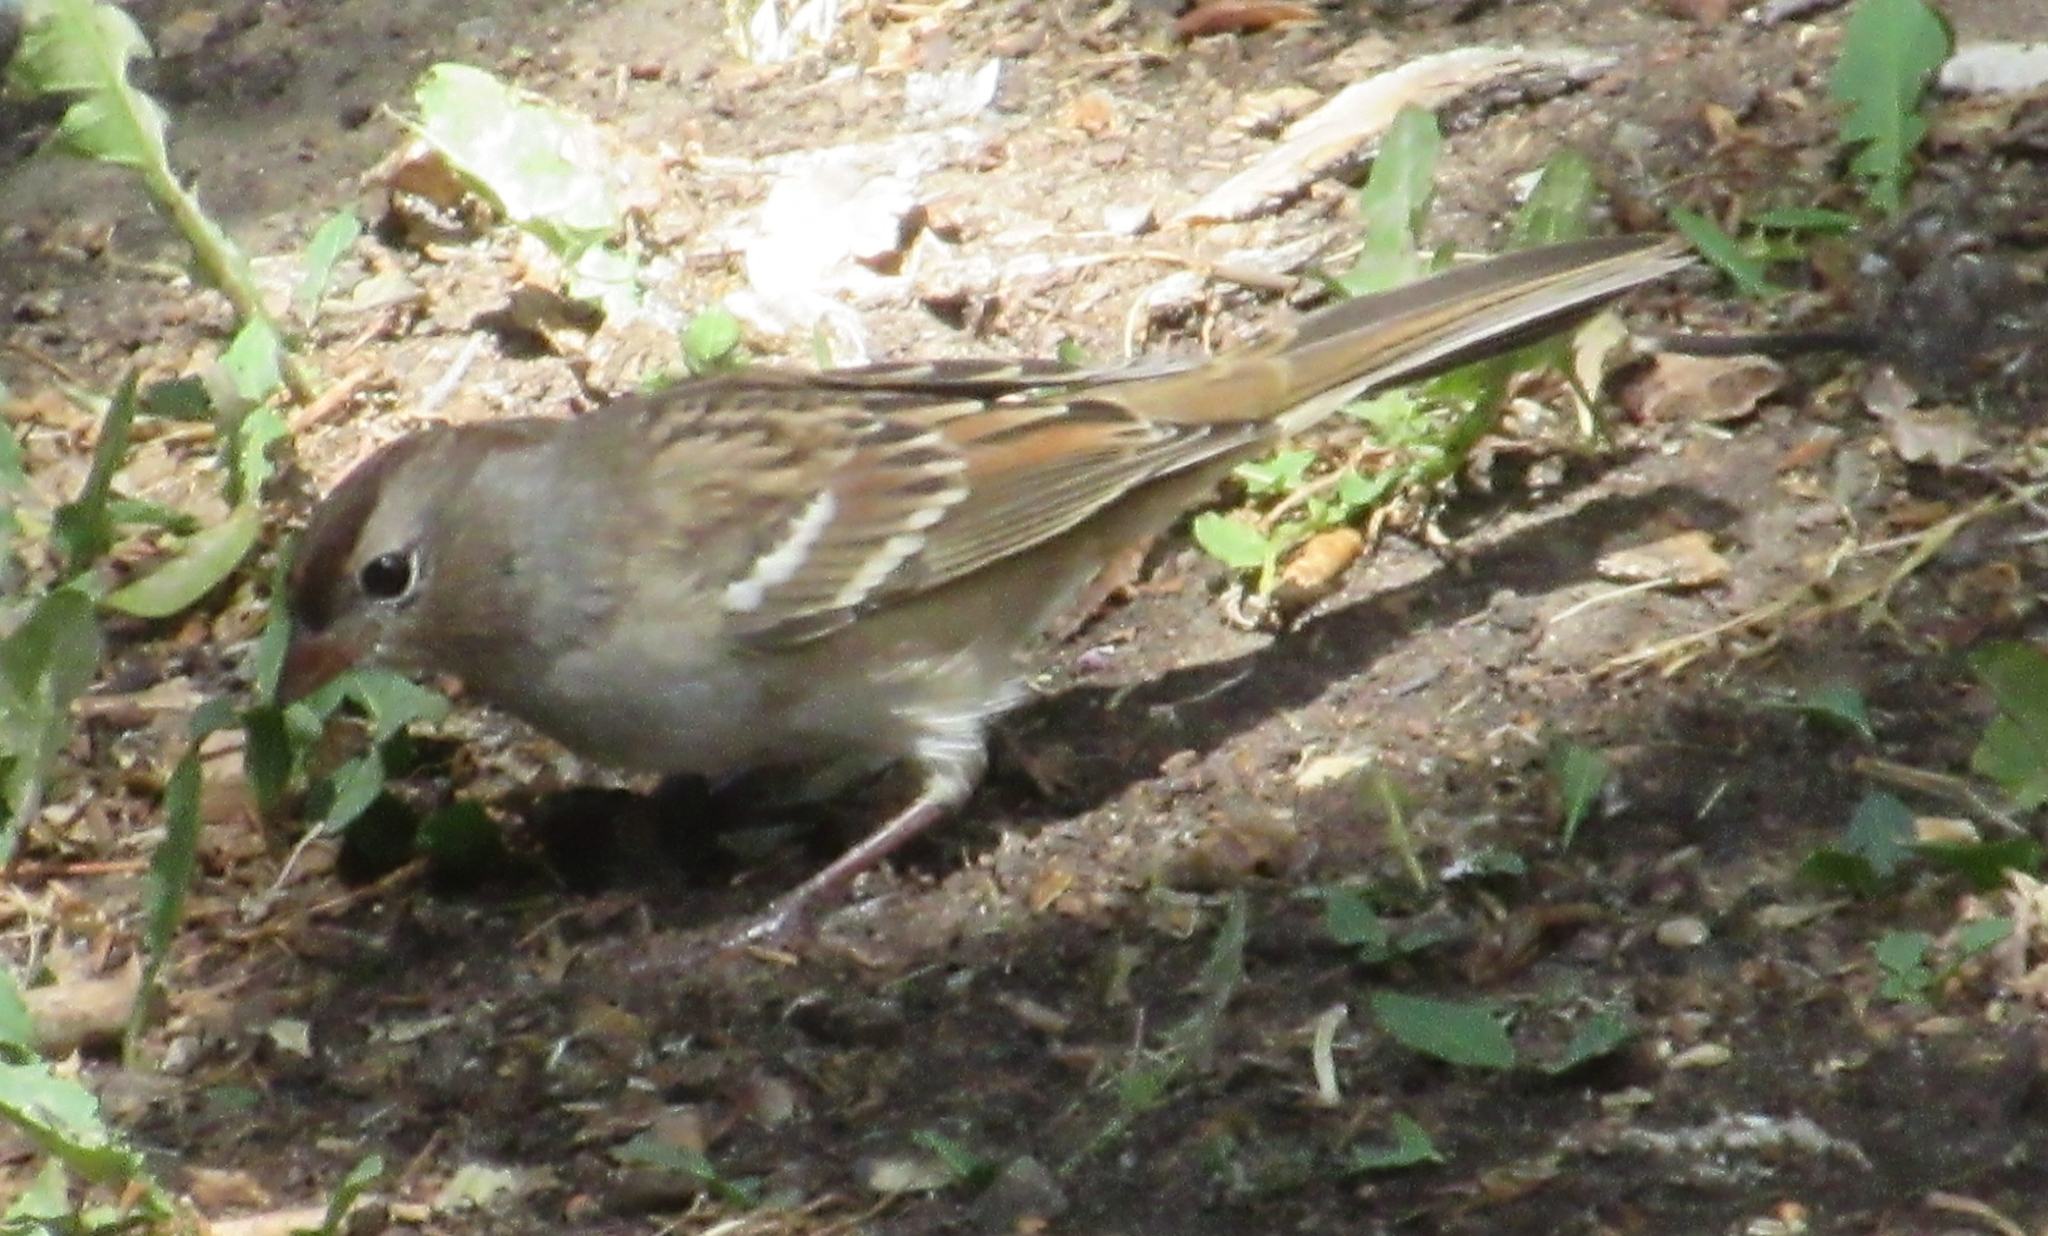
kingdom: Animalia
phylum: Chordata
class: Aves
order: Passeriformes
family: Passerellidae
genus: Zonotrichia
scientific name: Zonotrichia leucophrys
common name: White-crowned sparrow
